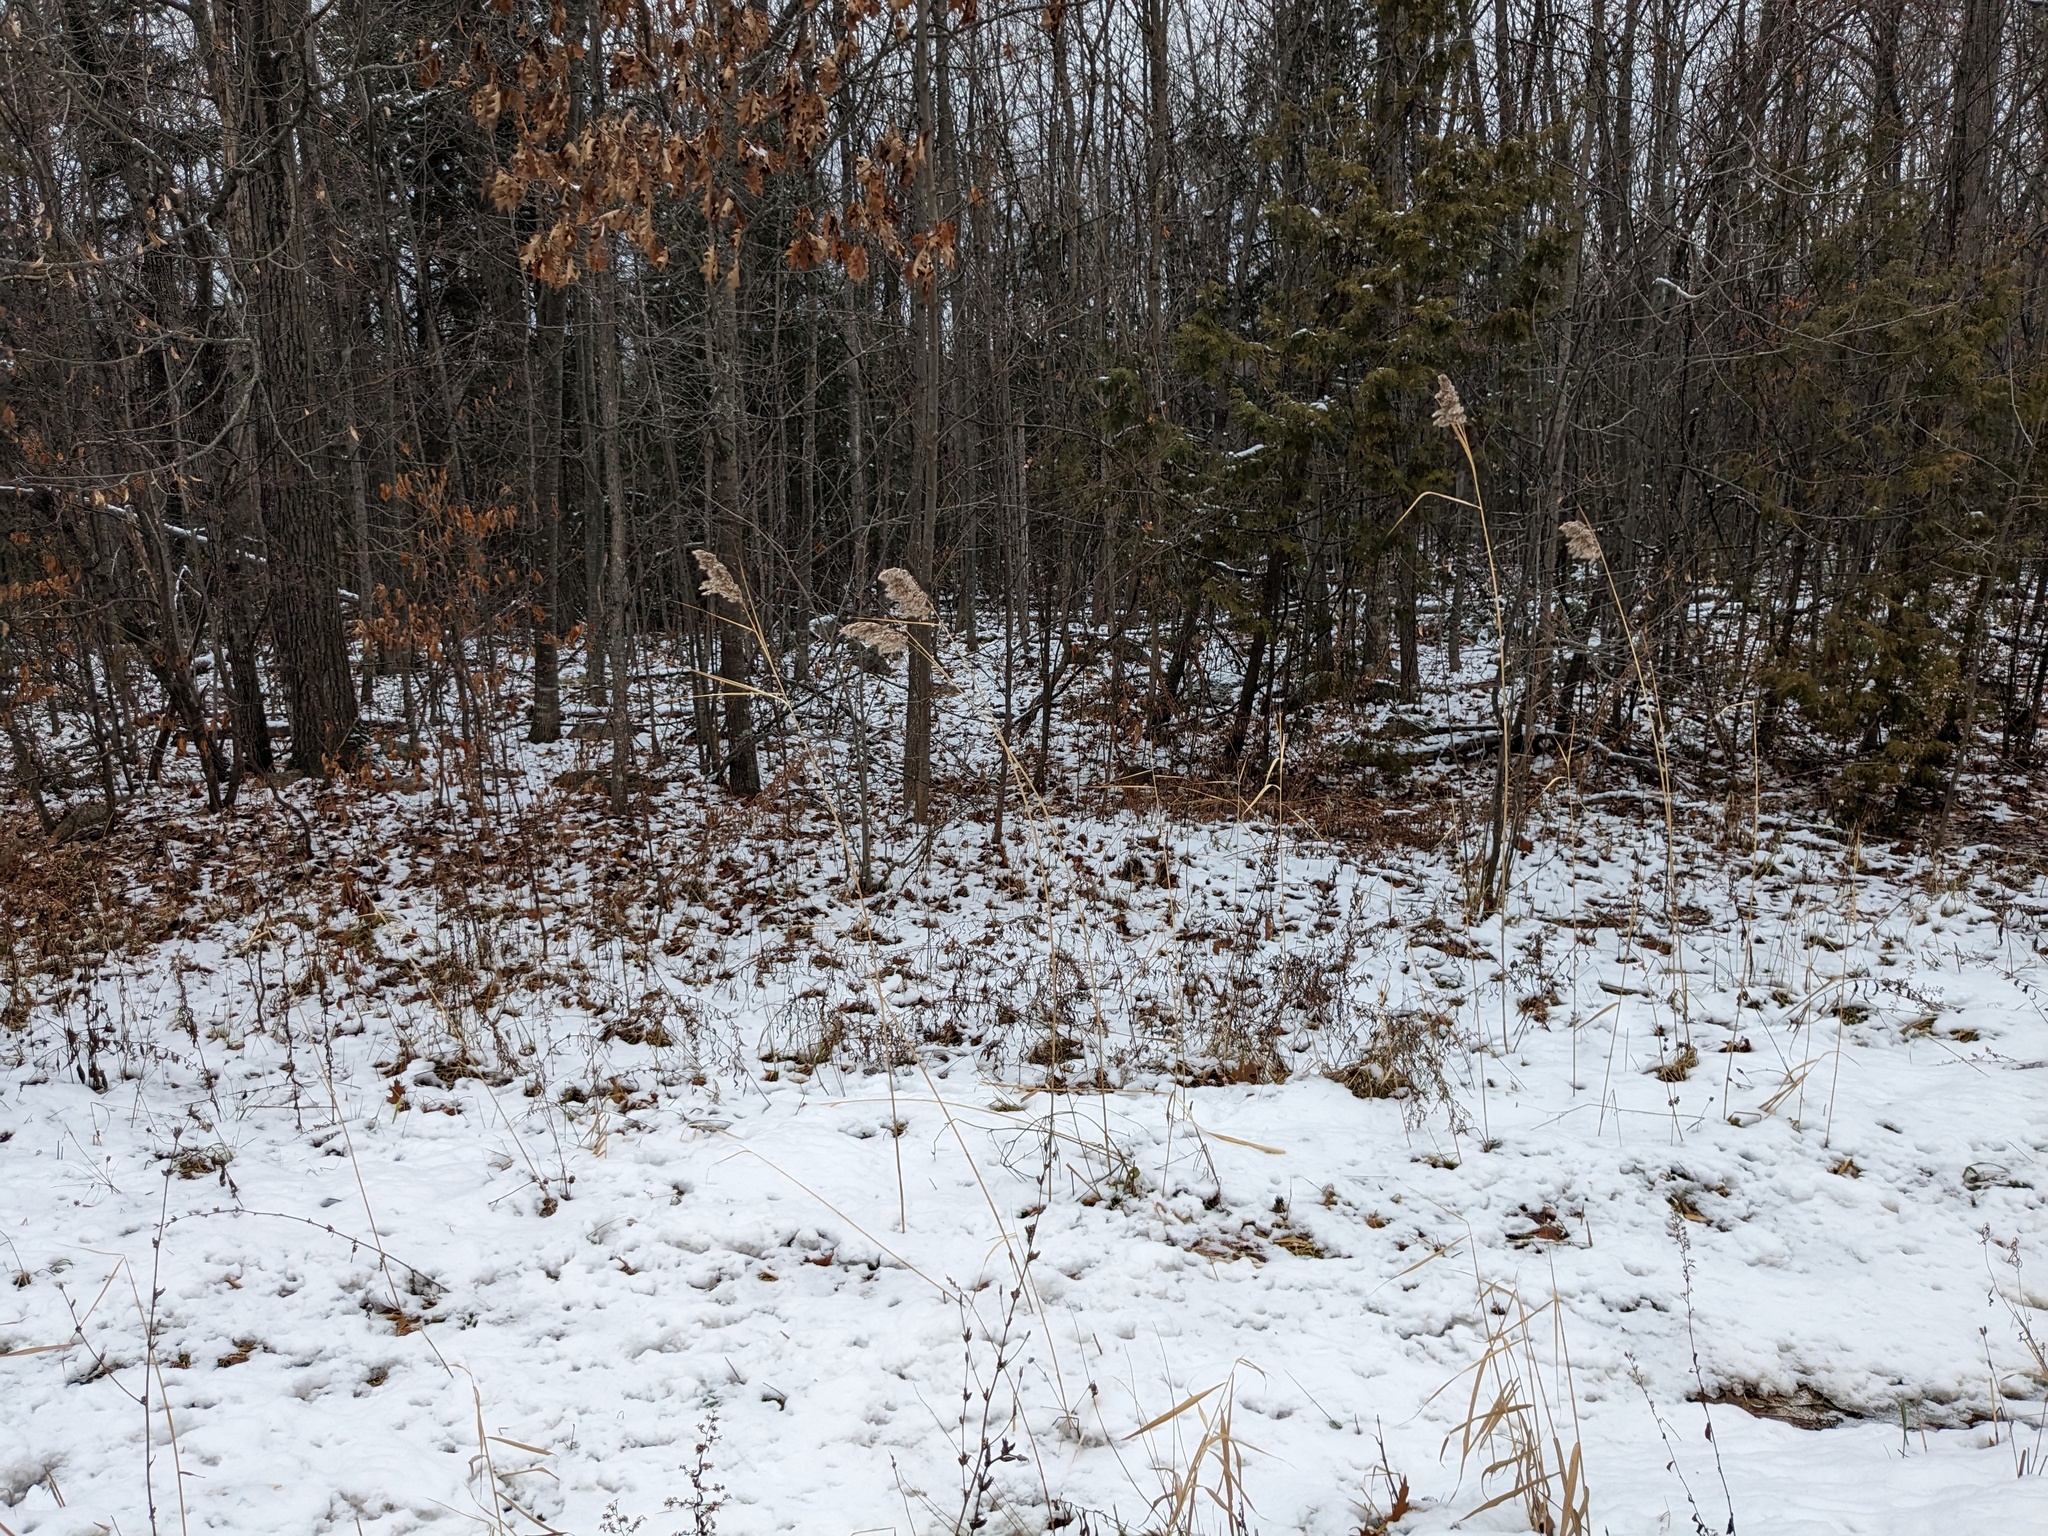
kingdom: Plantae
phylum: Tracheophyta
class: Liliopsida
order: Poales
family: Poaceae
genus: Phragmites
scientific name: Phragmites australis
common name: Common reed
